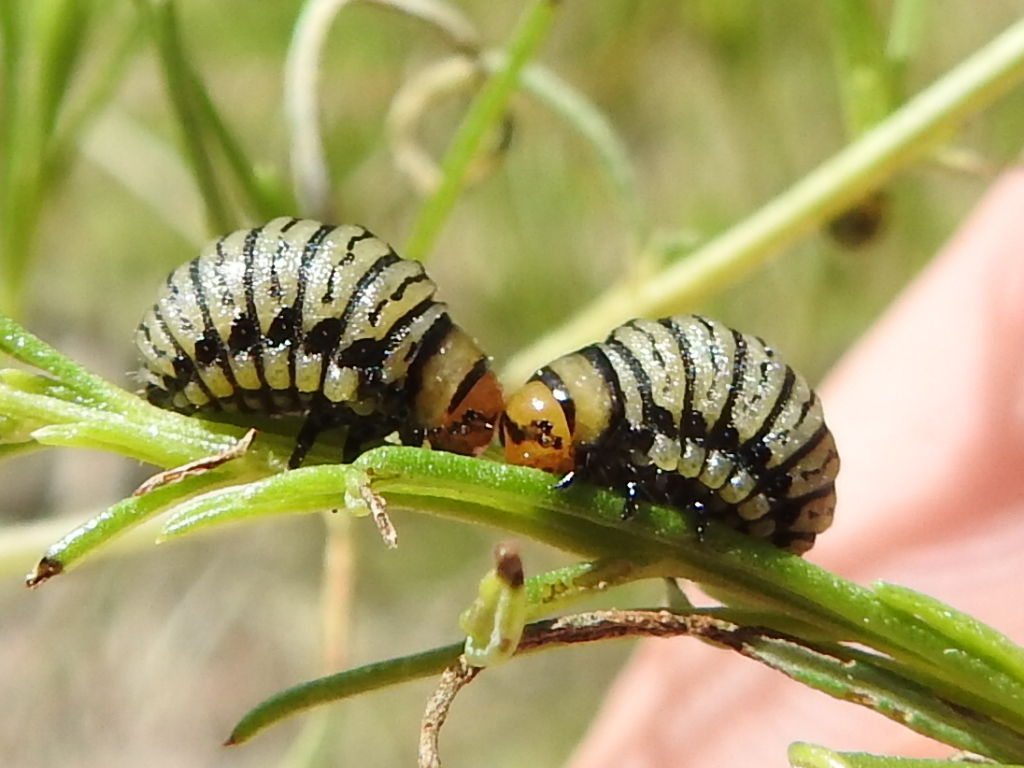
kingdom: Animalia
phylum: Arthropoda
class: Insecta
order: Coleoptera
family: Chrysomelidae
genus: Leptinotarsa
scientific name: Leptinotarsa lineolata
